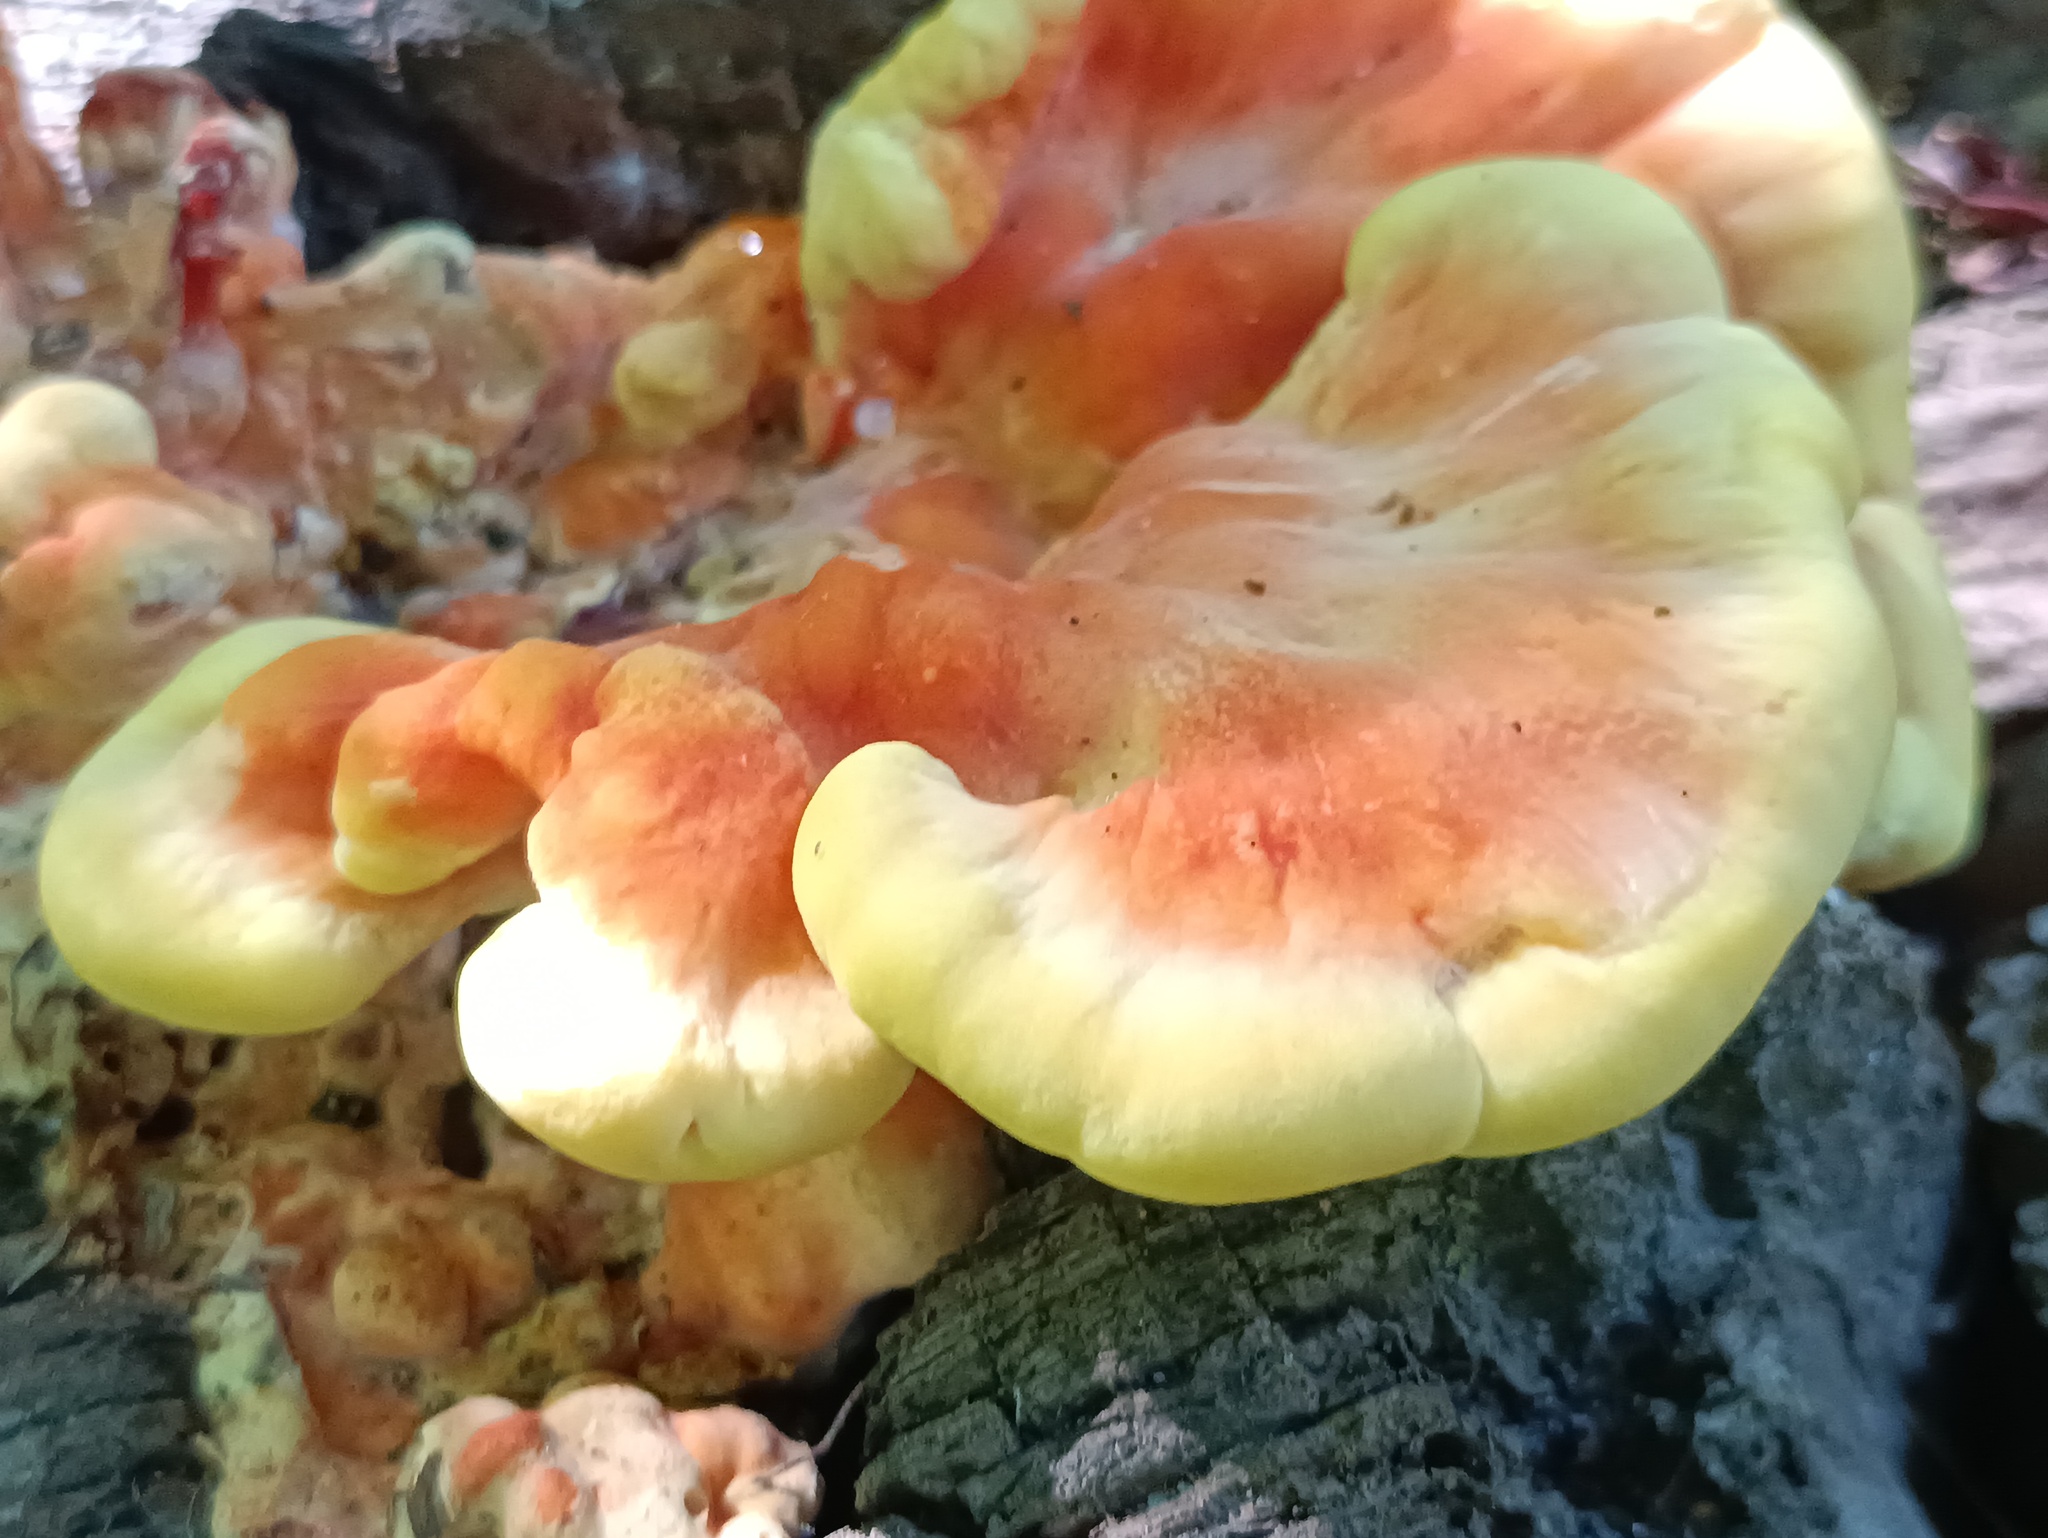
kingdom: Fungi
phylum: Basidiomycota
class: Agaricomycetes
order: Polyporales
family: Laetiporaceae
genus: Laetiporus
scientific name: Laetiporus sulphureus
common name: Chicken of the woods
